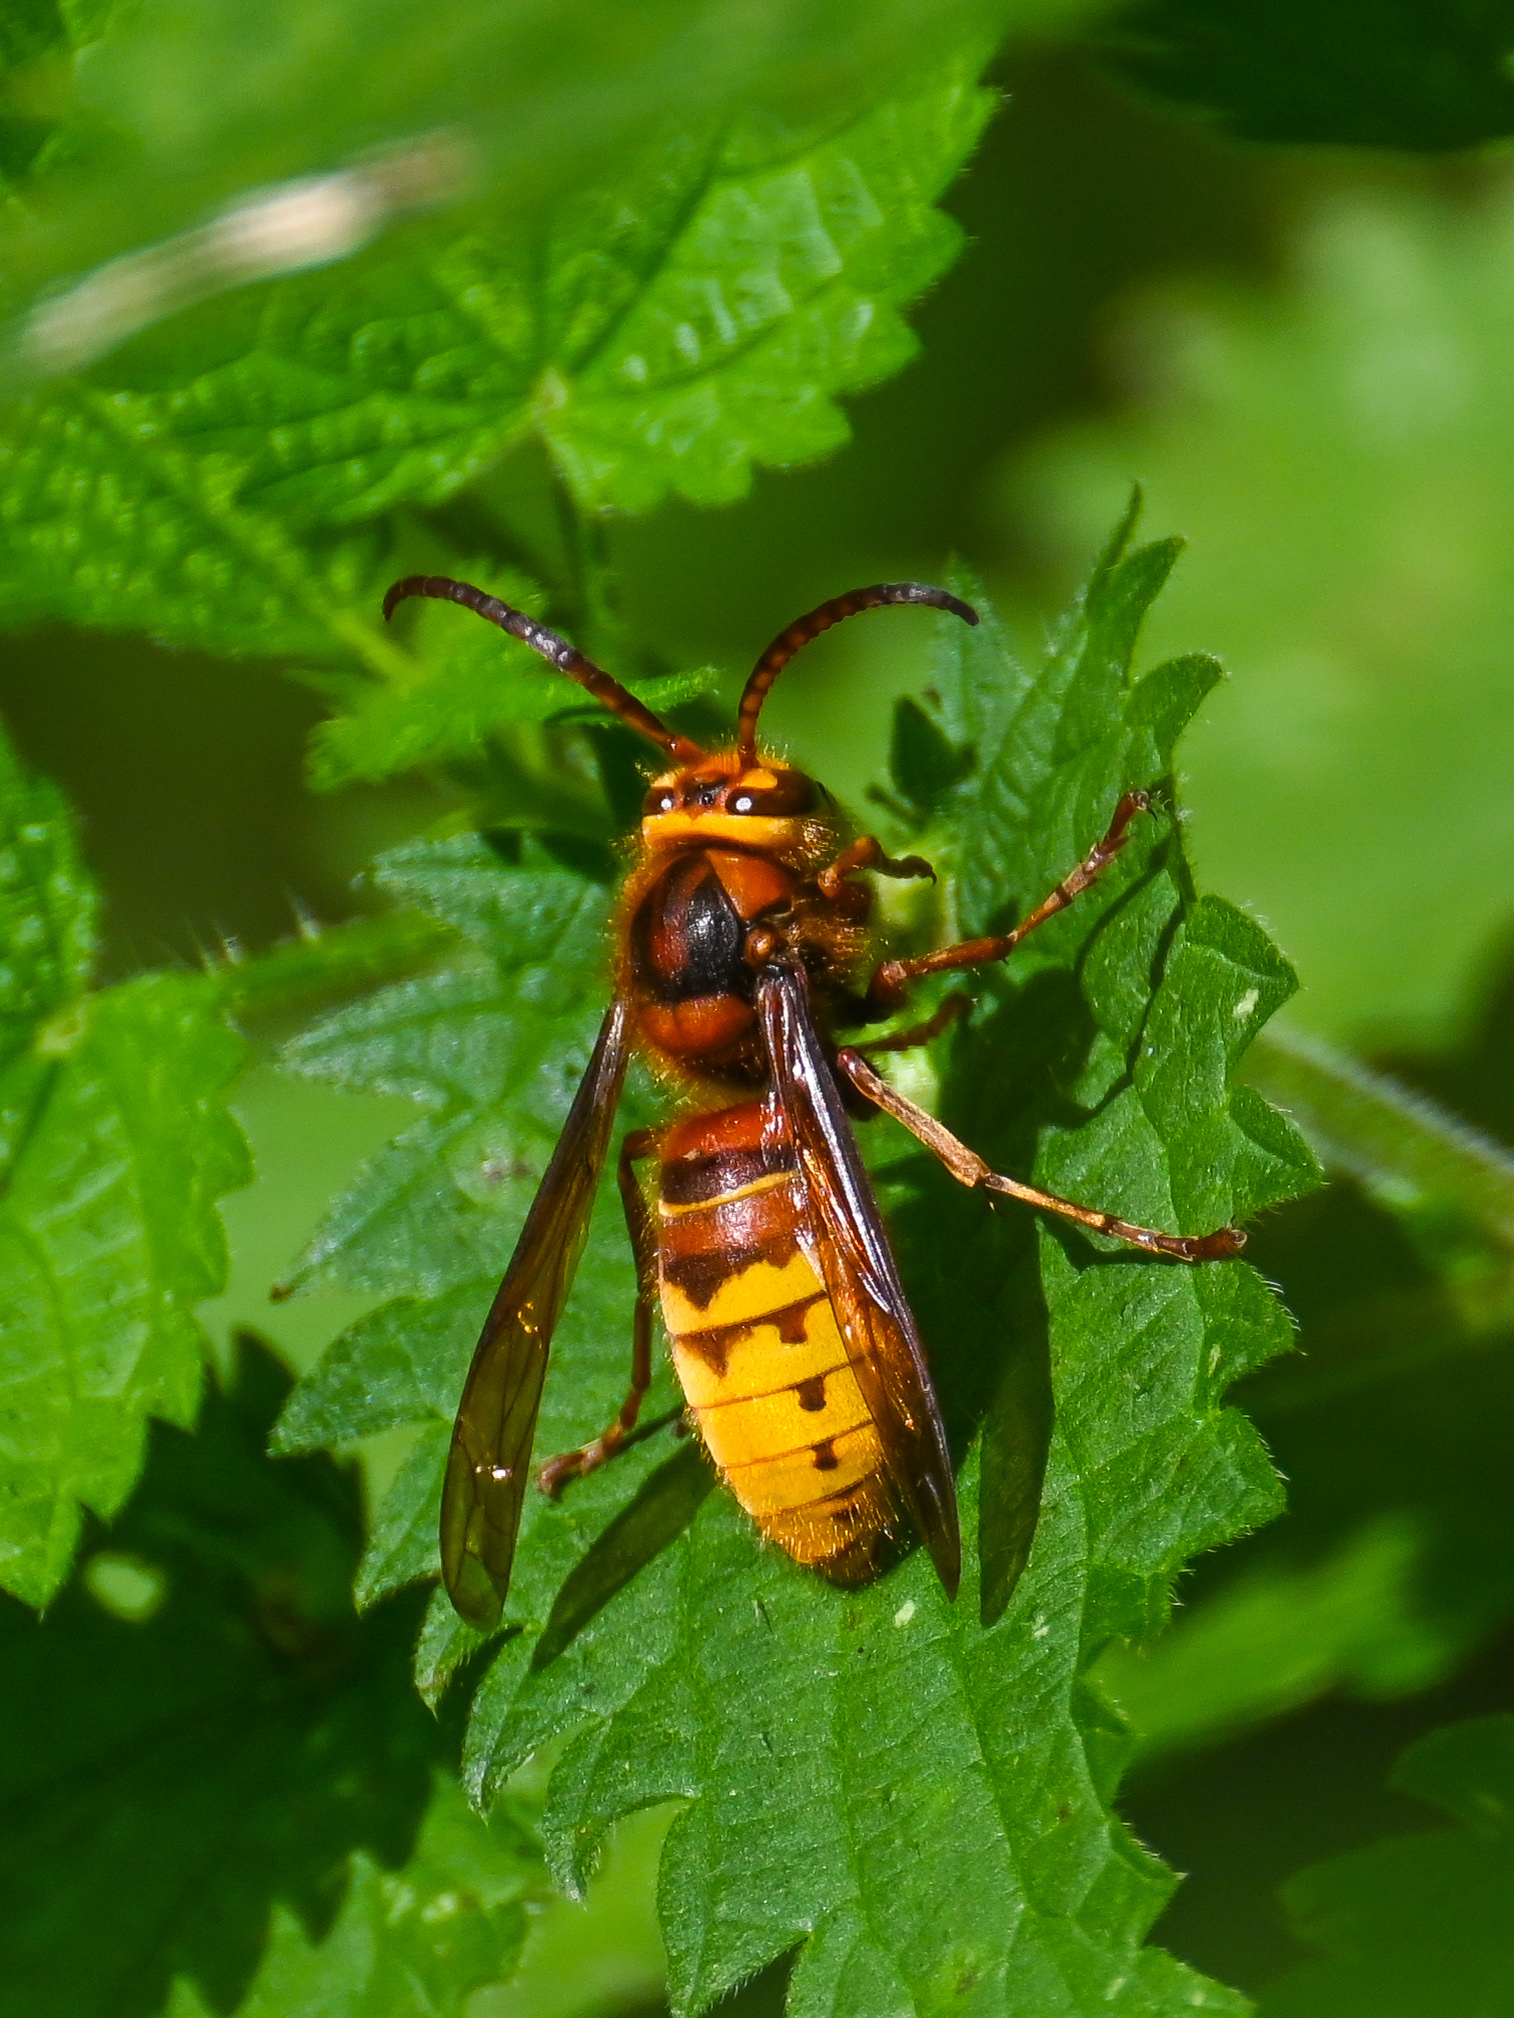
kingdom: Animalia
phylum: Arthropoda
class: Insecta
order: Hymenoptera
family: Vespidae
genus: Vespa
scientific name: Vespa crabro
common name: Hornet
